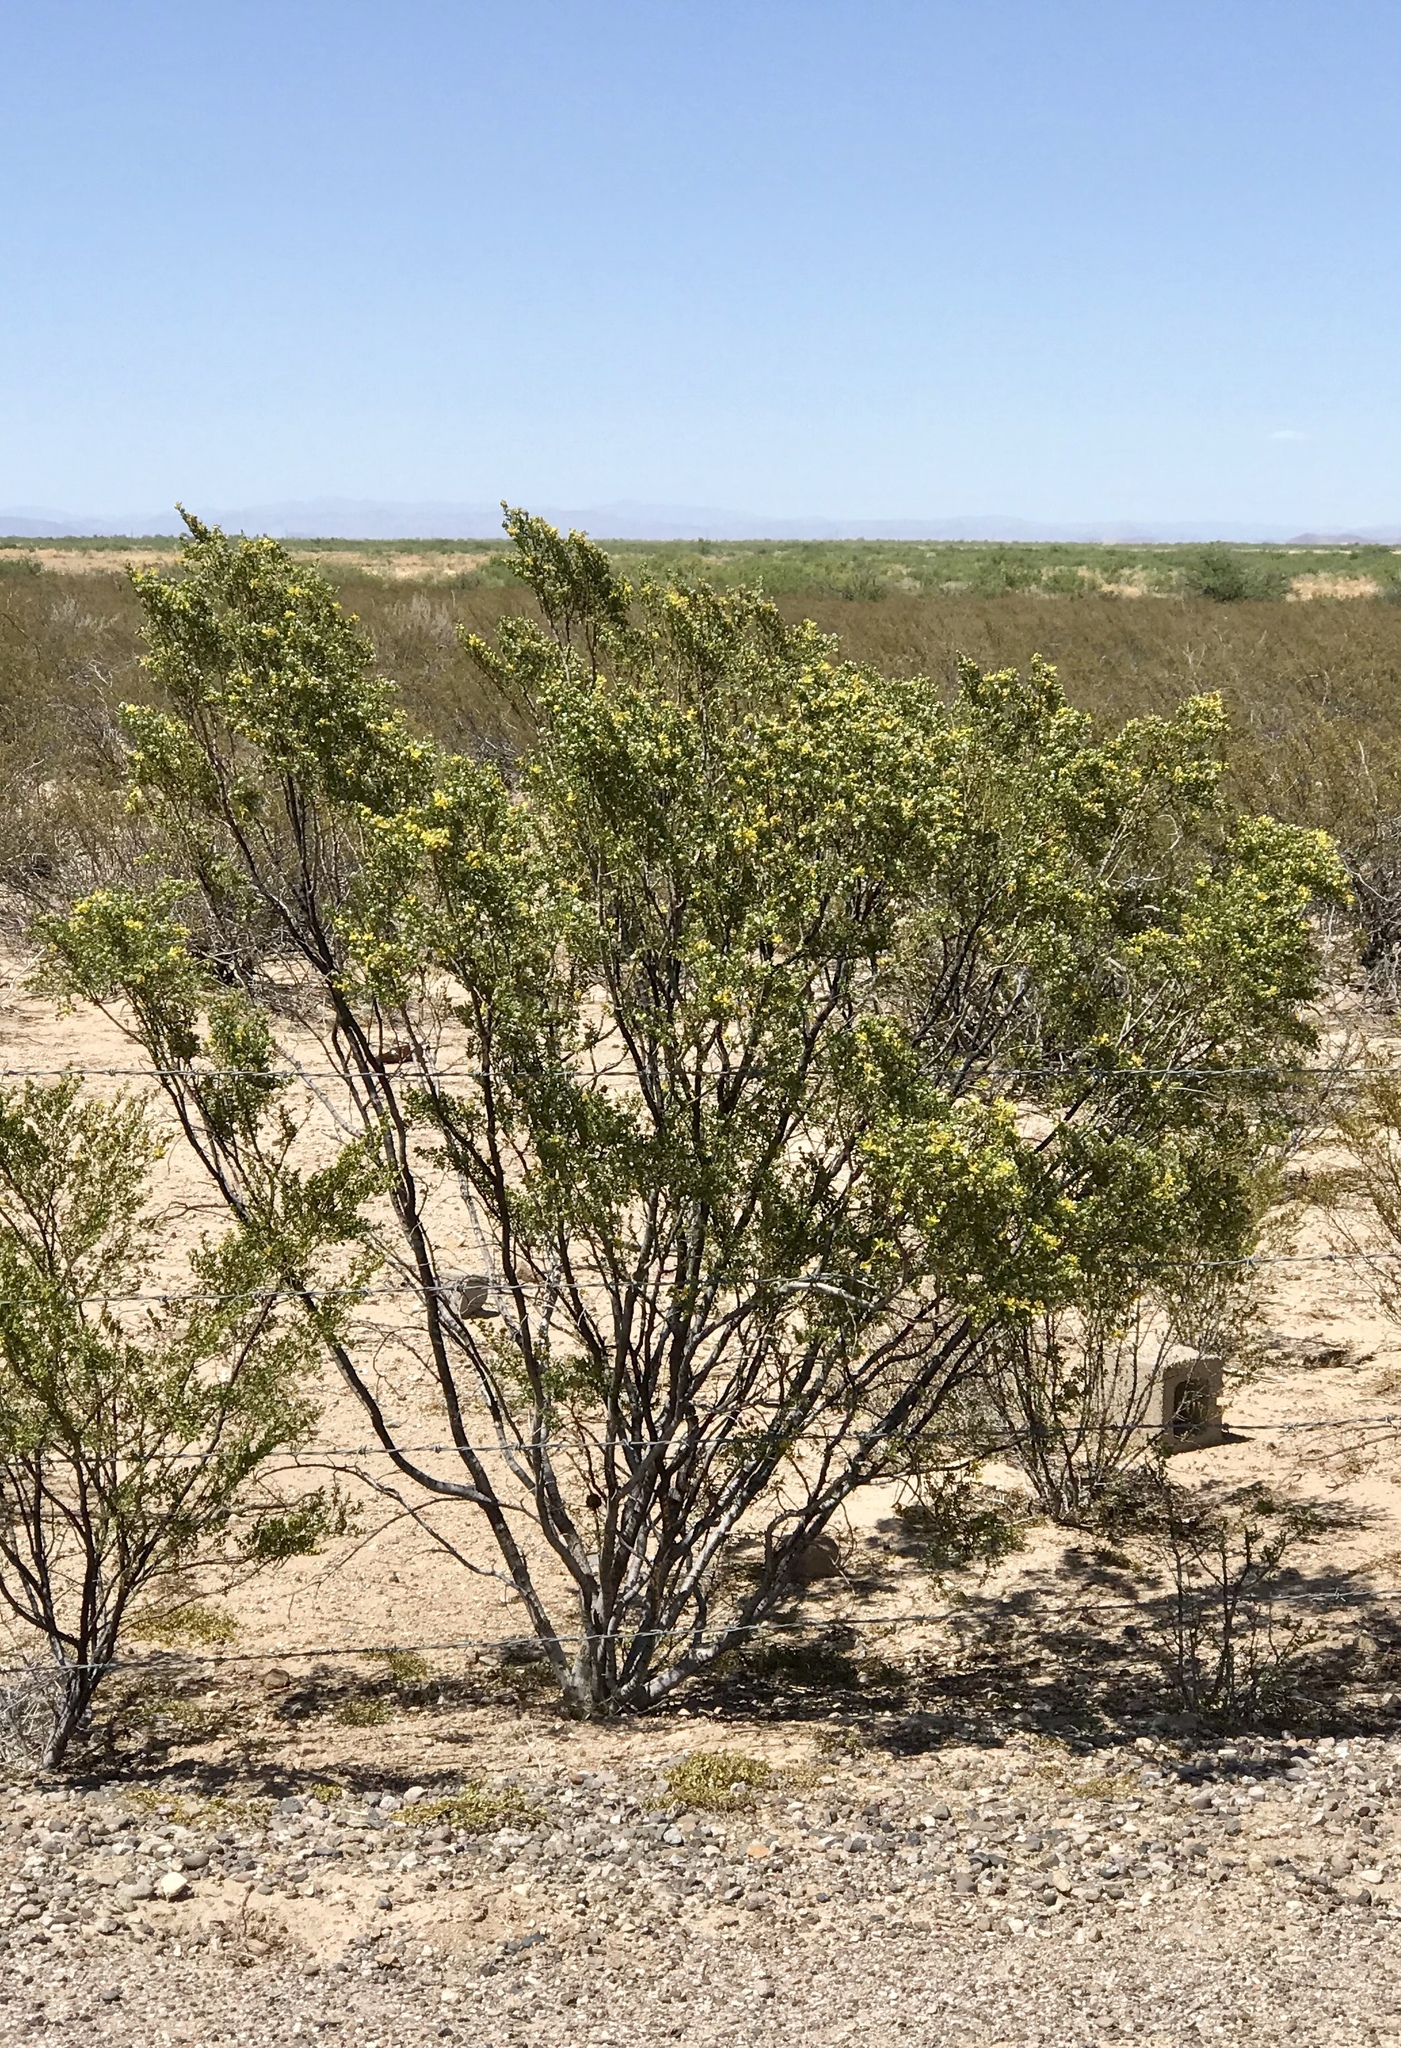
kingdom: Plantae
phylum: Tracheophyta
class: Magnoliopsida
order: Zygophyllales
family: Zygophyllaceae
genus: Larrea
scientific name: Larrea tridentata
